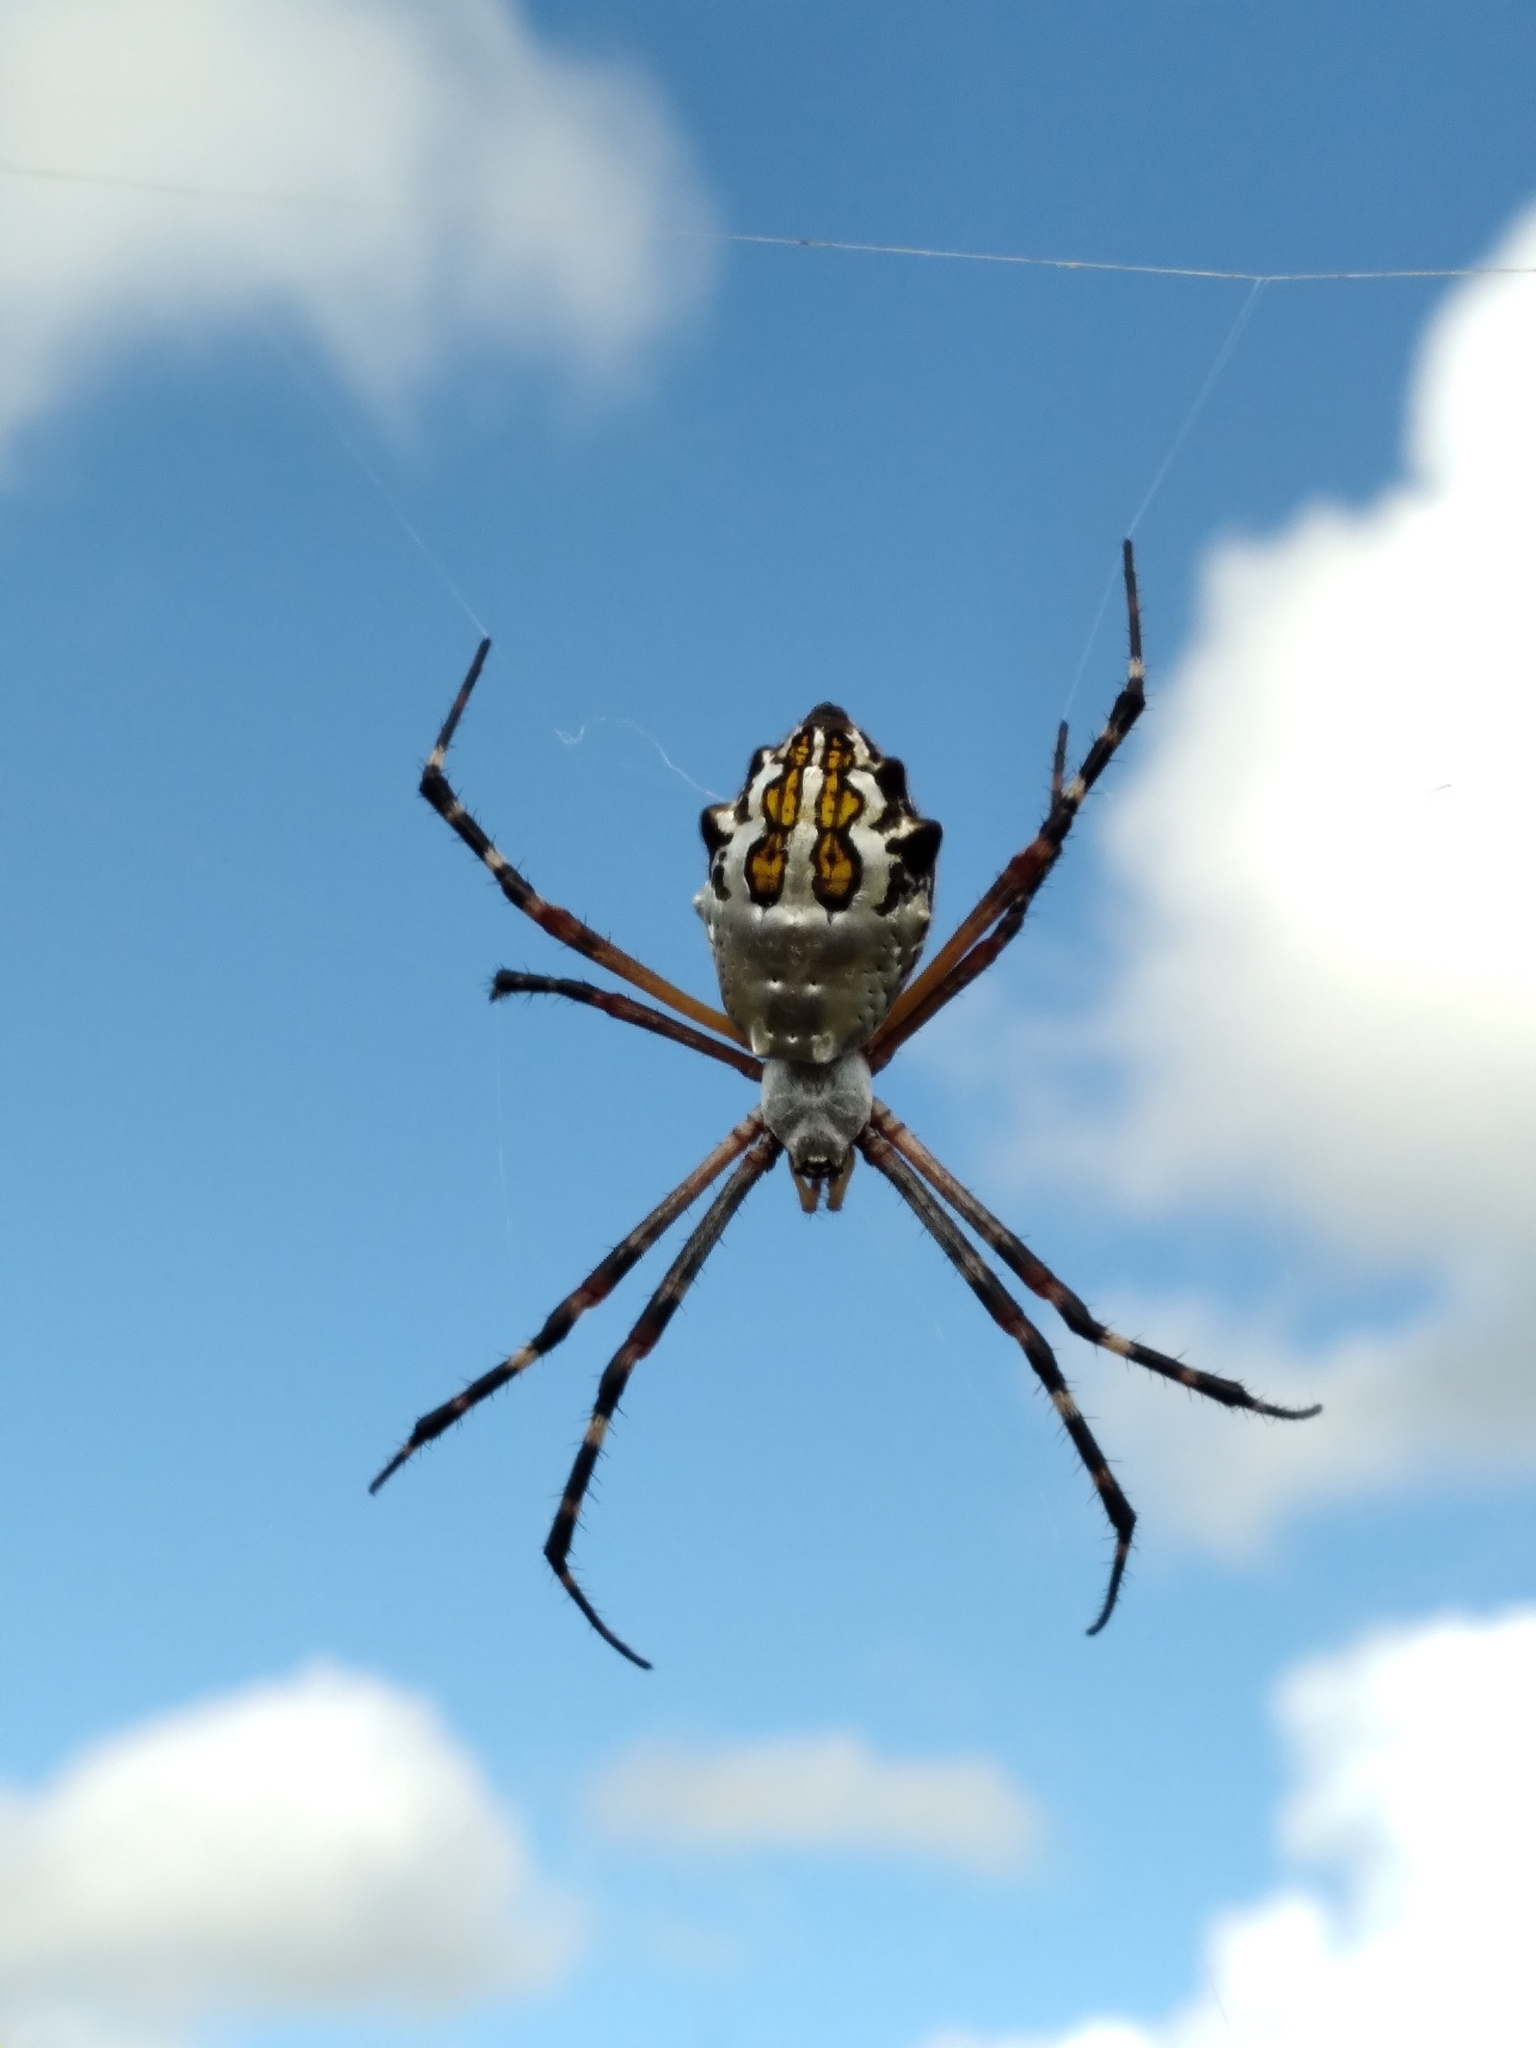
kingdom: Animalia
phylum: Arthropoda
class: Arachnida
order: Araneae
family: Araneidae
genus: Argiope
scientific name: Argiope florida
